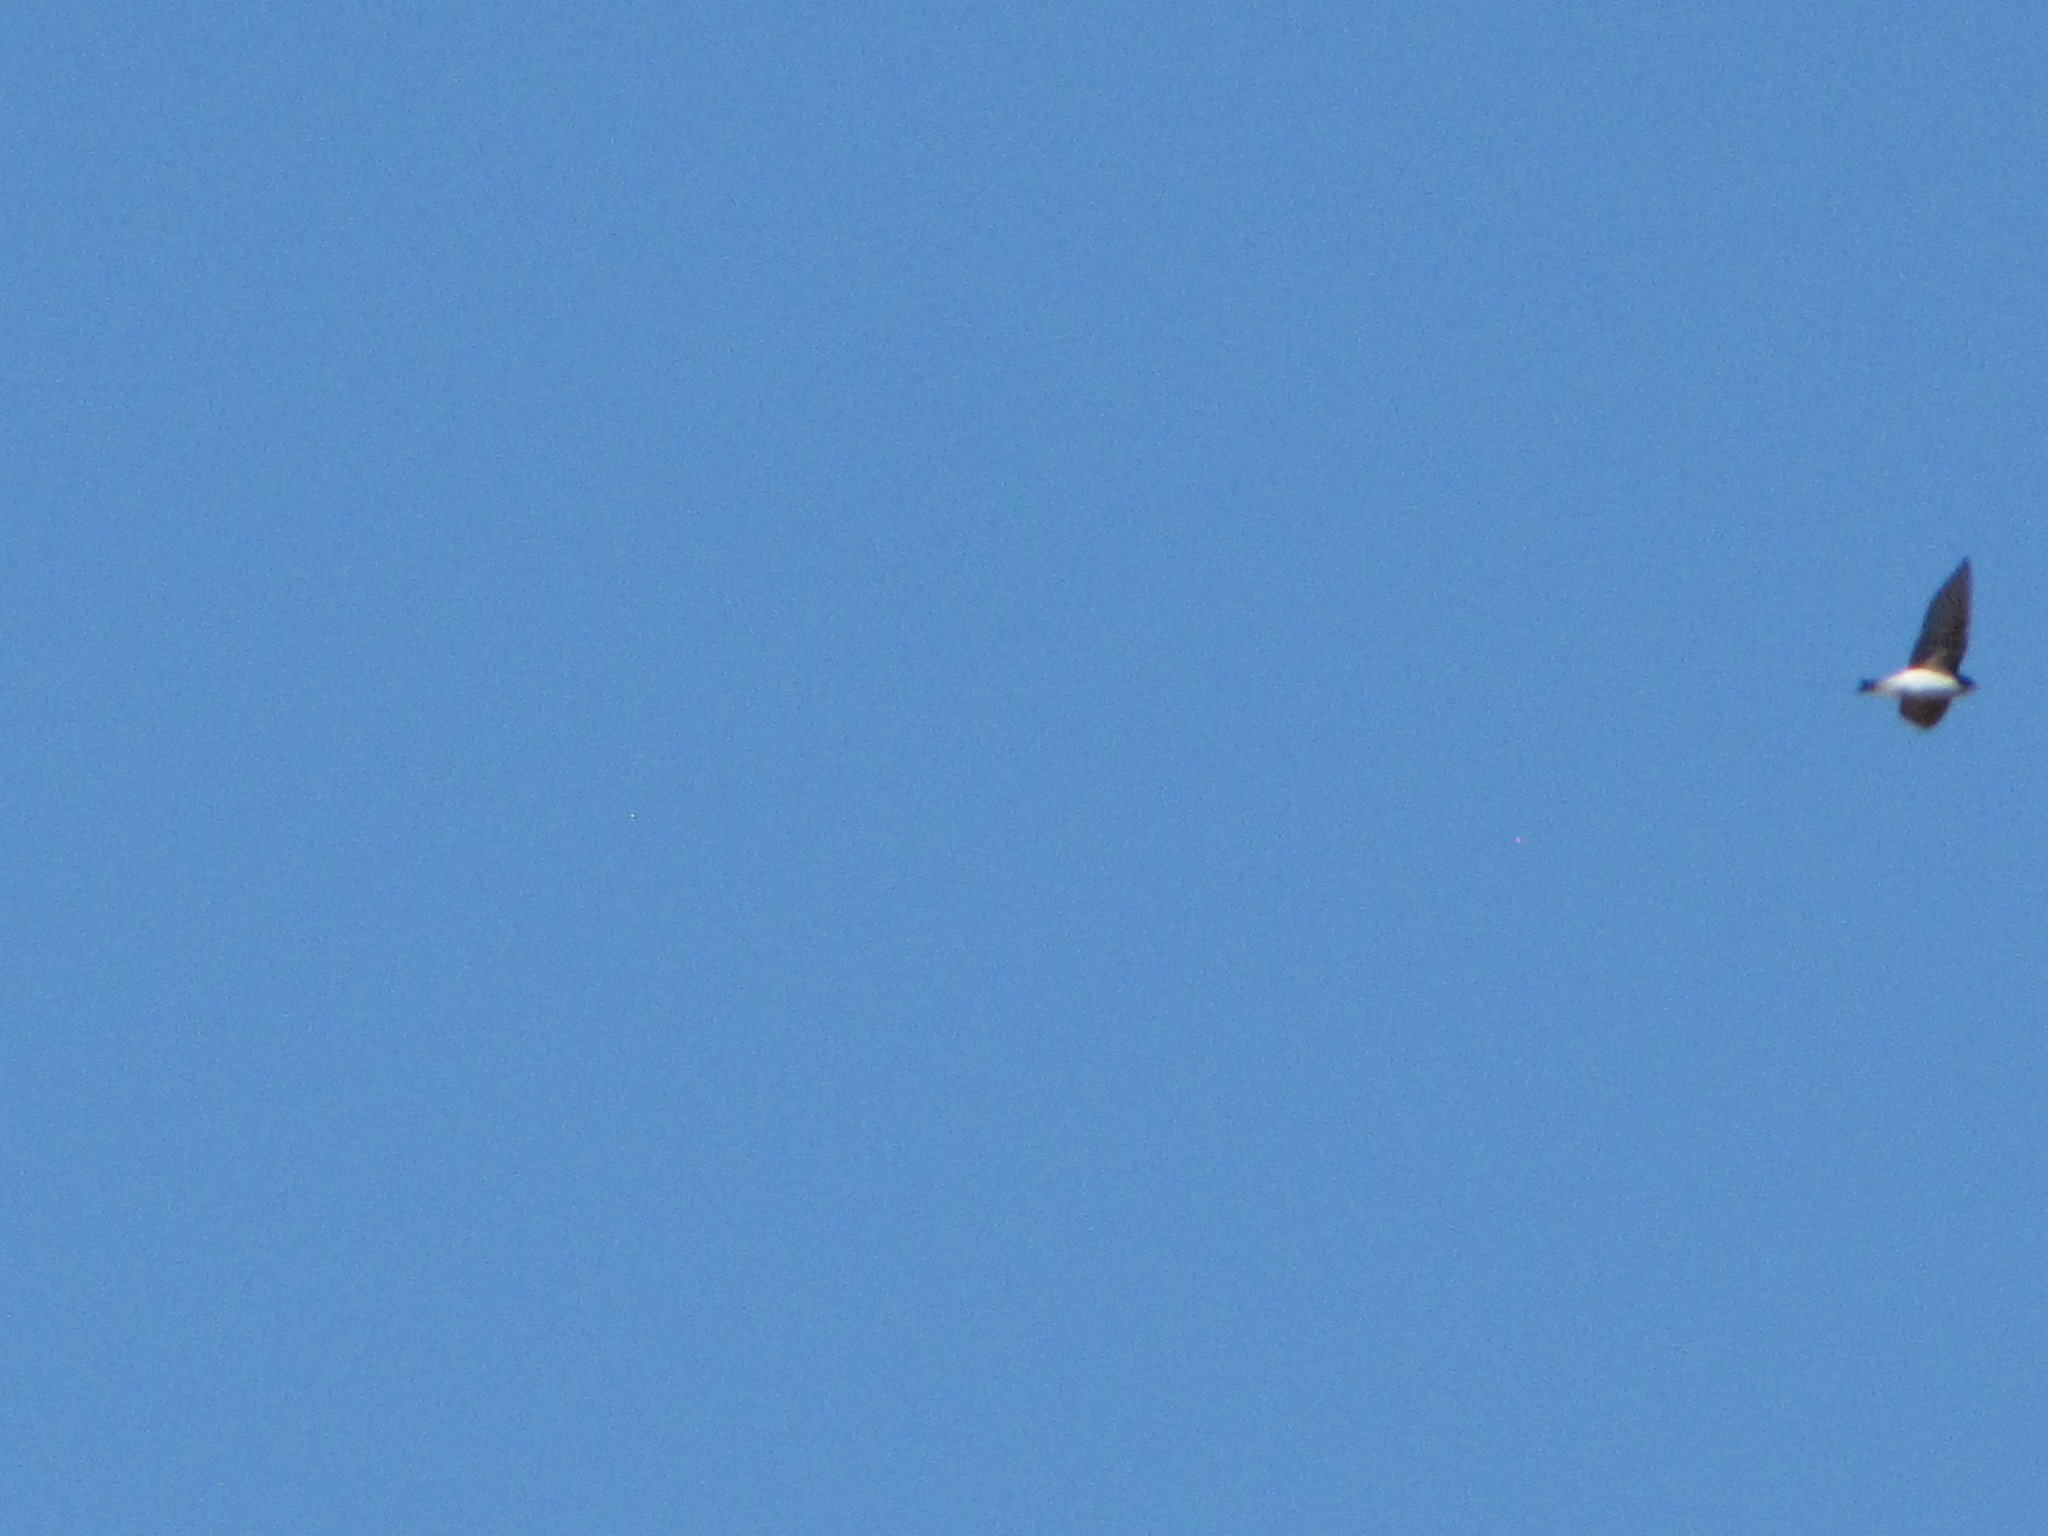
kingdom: Animalia
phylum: Chordata
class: Aves
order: Passeriformes
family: Hirundinidae
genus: Tachycineta
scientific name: Tachycineta bicolor
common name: Tree swallow
